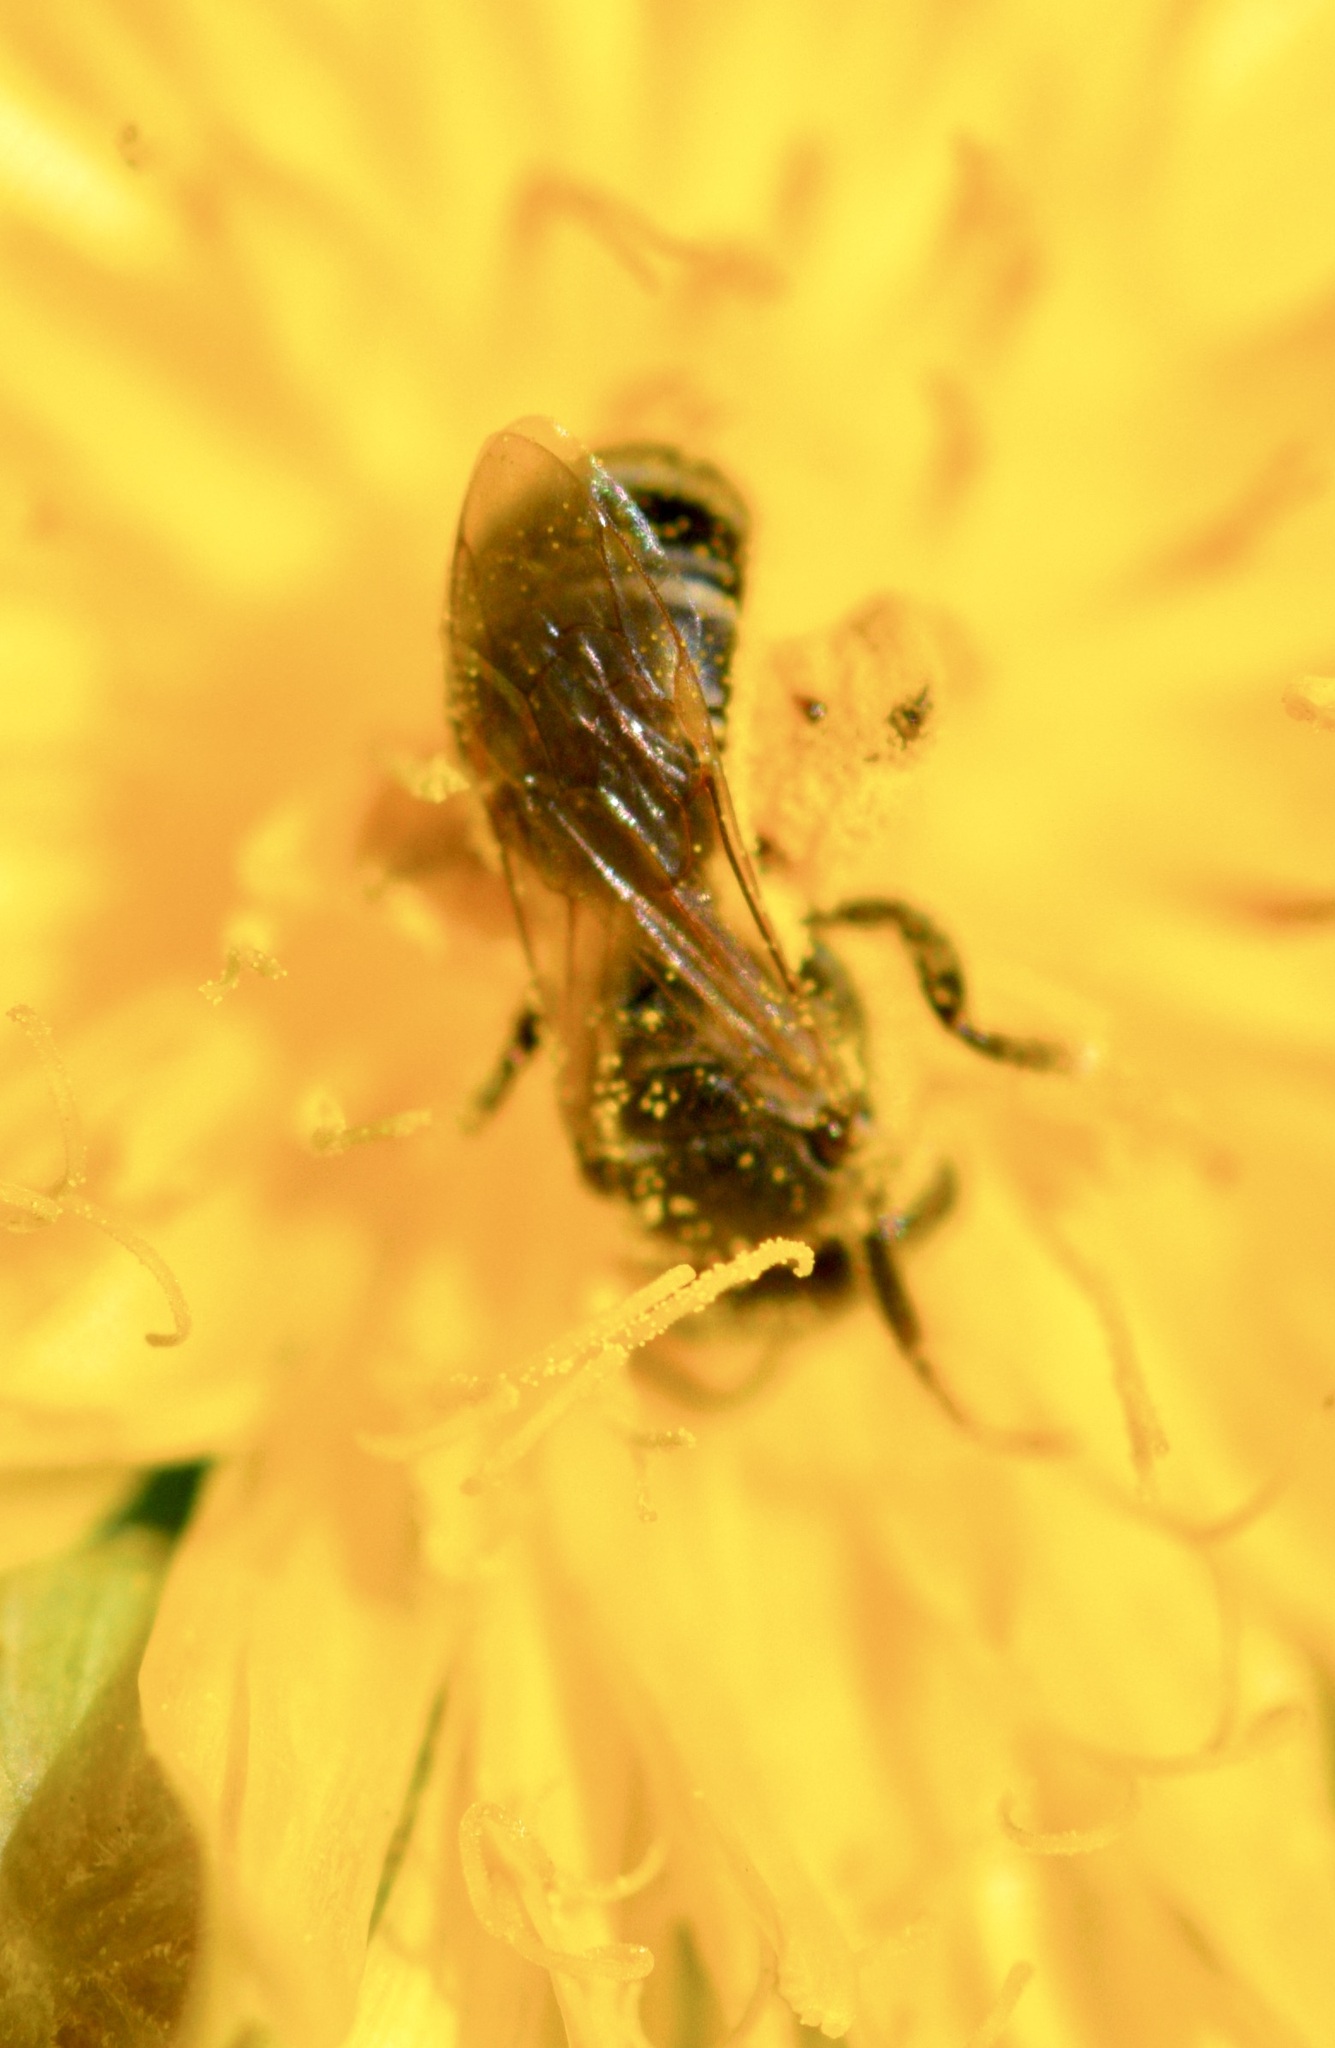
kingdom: Animalia
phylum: Arthropoda
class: Insecta
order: Hymenoptera
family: Halictidae
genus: Halictus
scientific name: Halictus ligatus
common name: Ligated furrow bee
